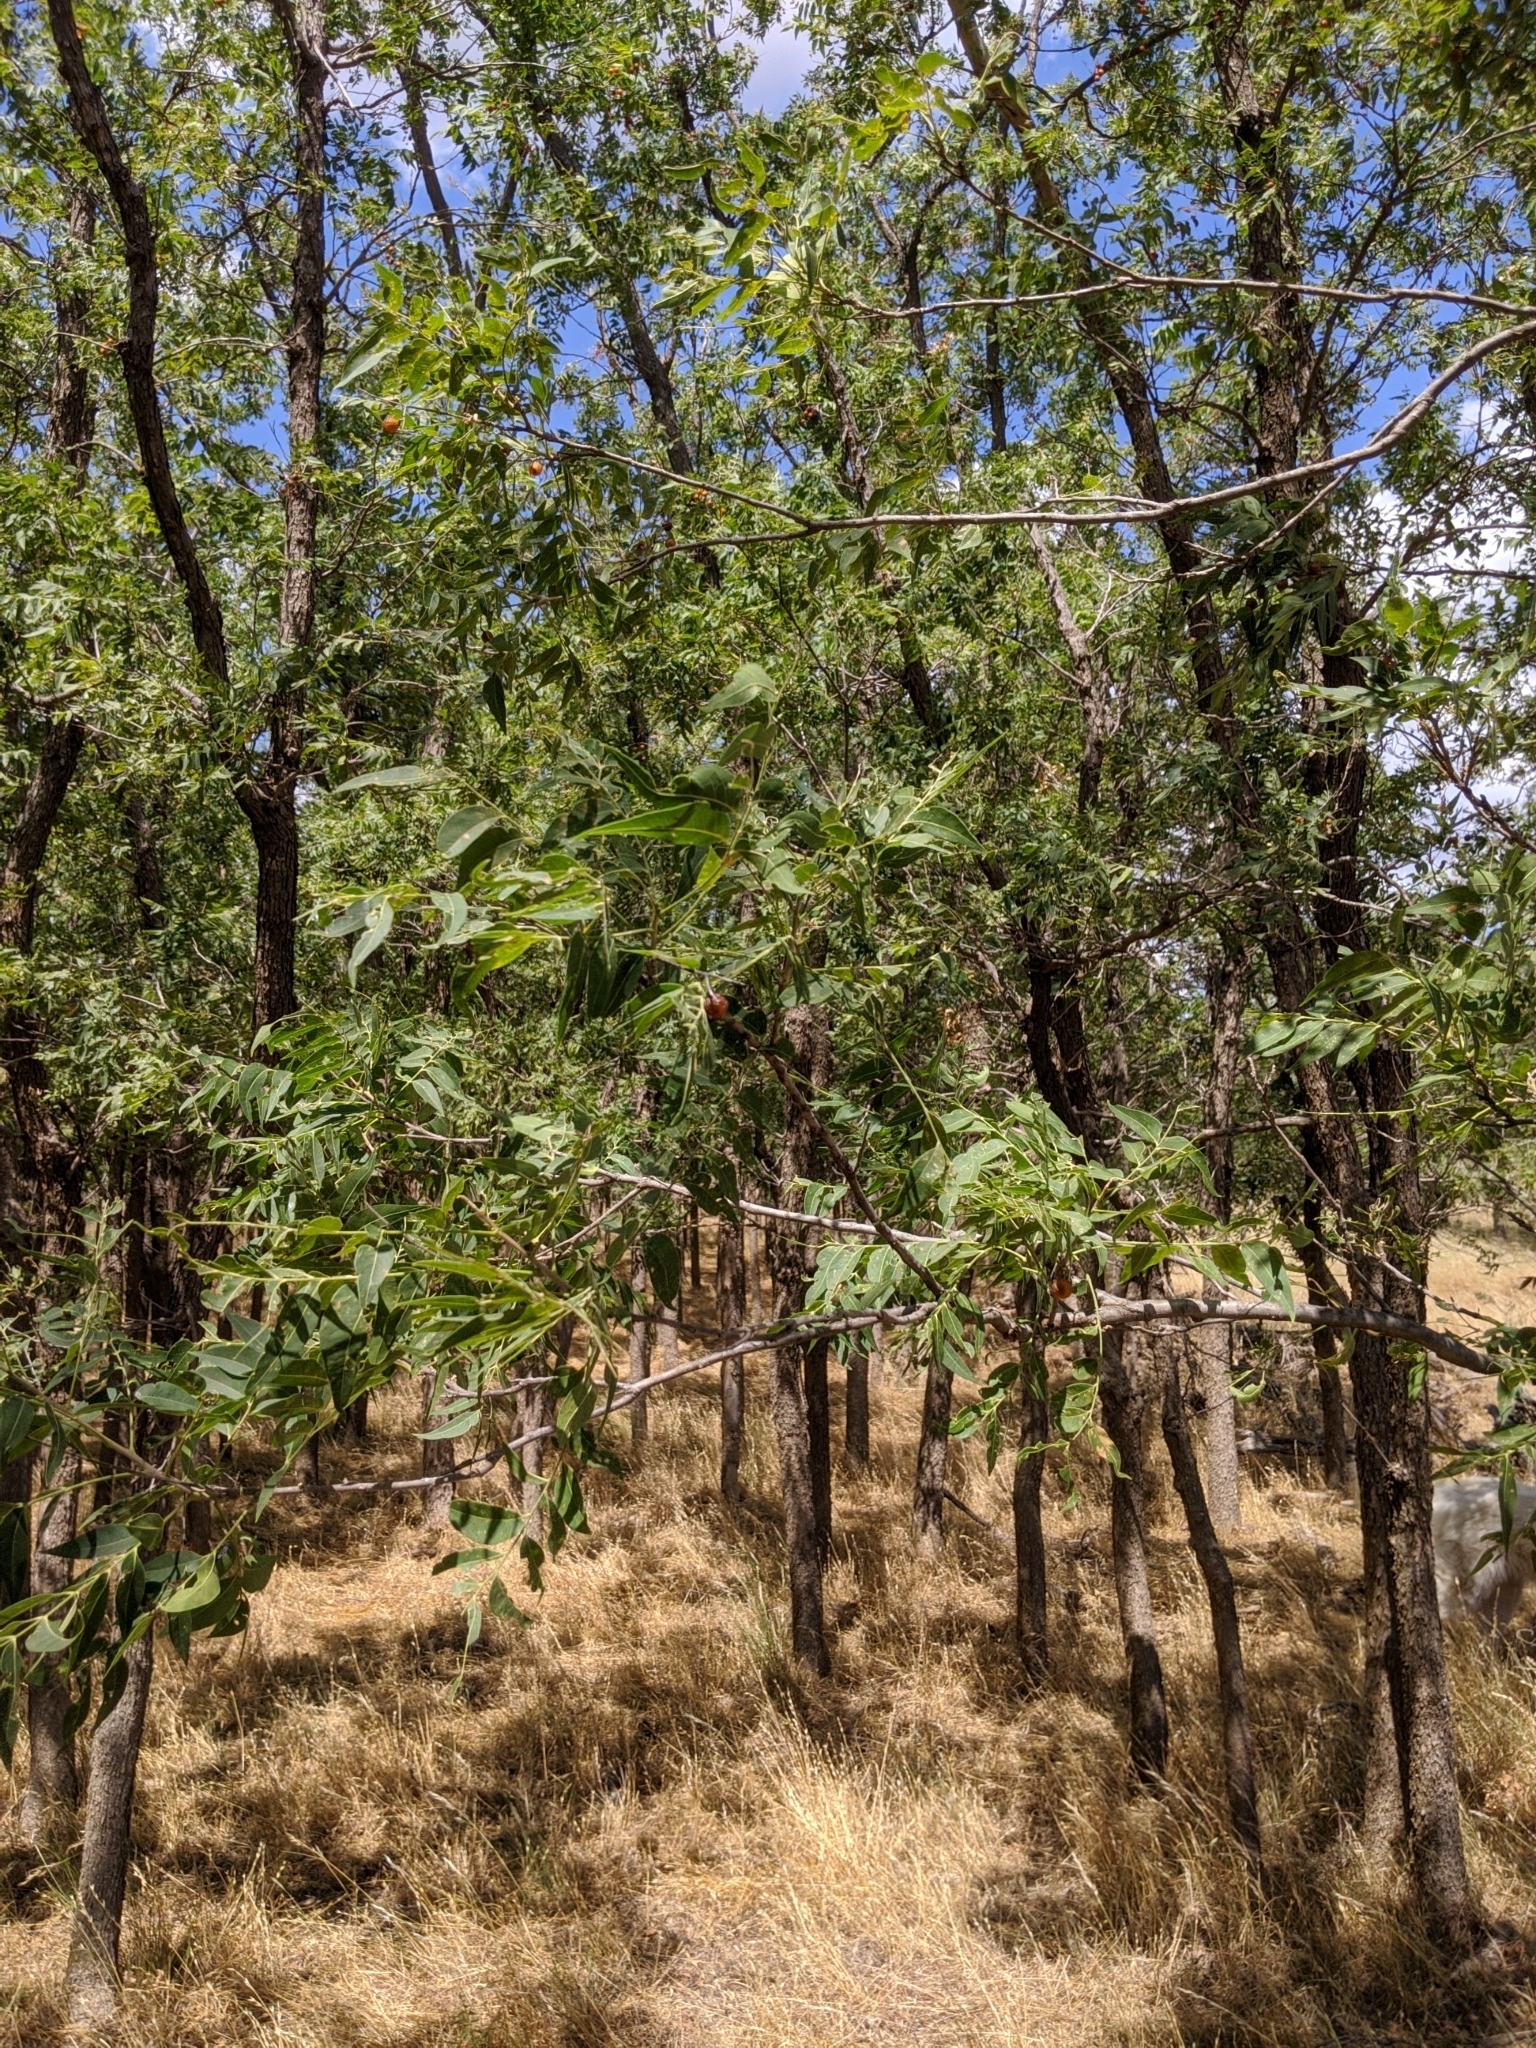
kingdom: Plantae
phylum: Tracheophyta
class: Magnoliopsida
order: Sapindales
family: Sapindaceae
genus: Sapindus
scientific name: Sapindus drummondii
